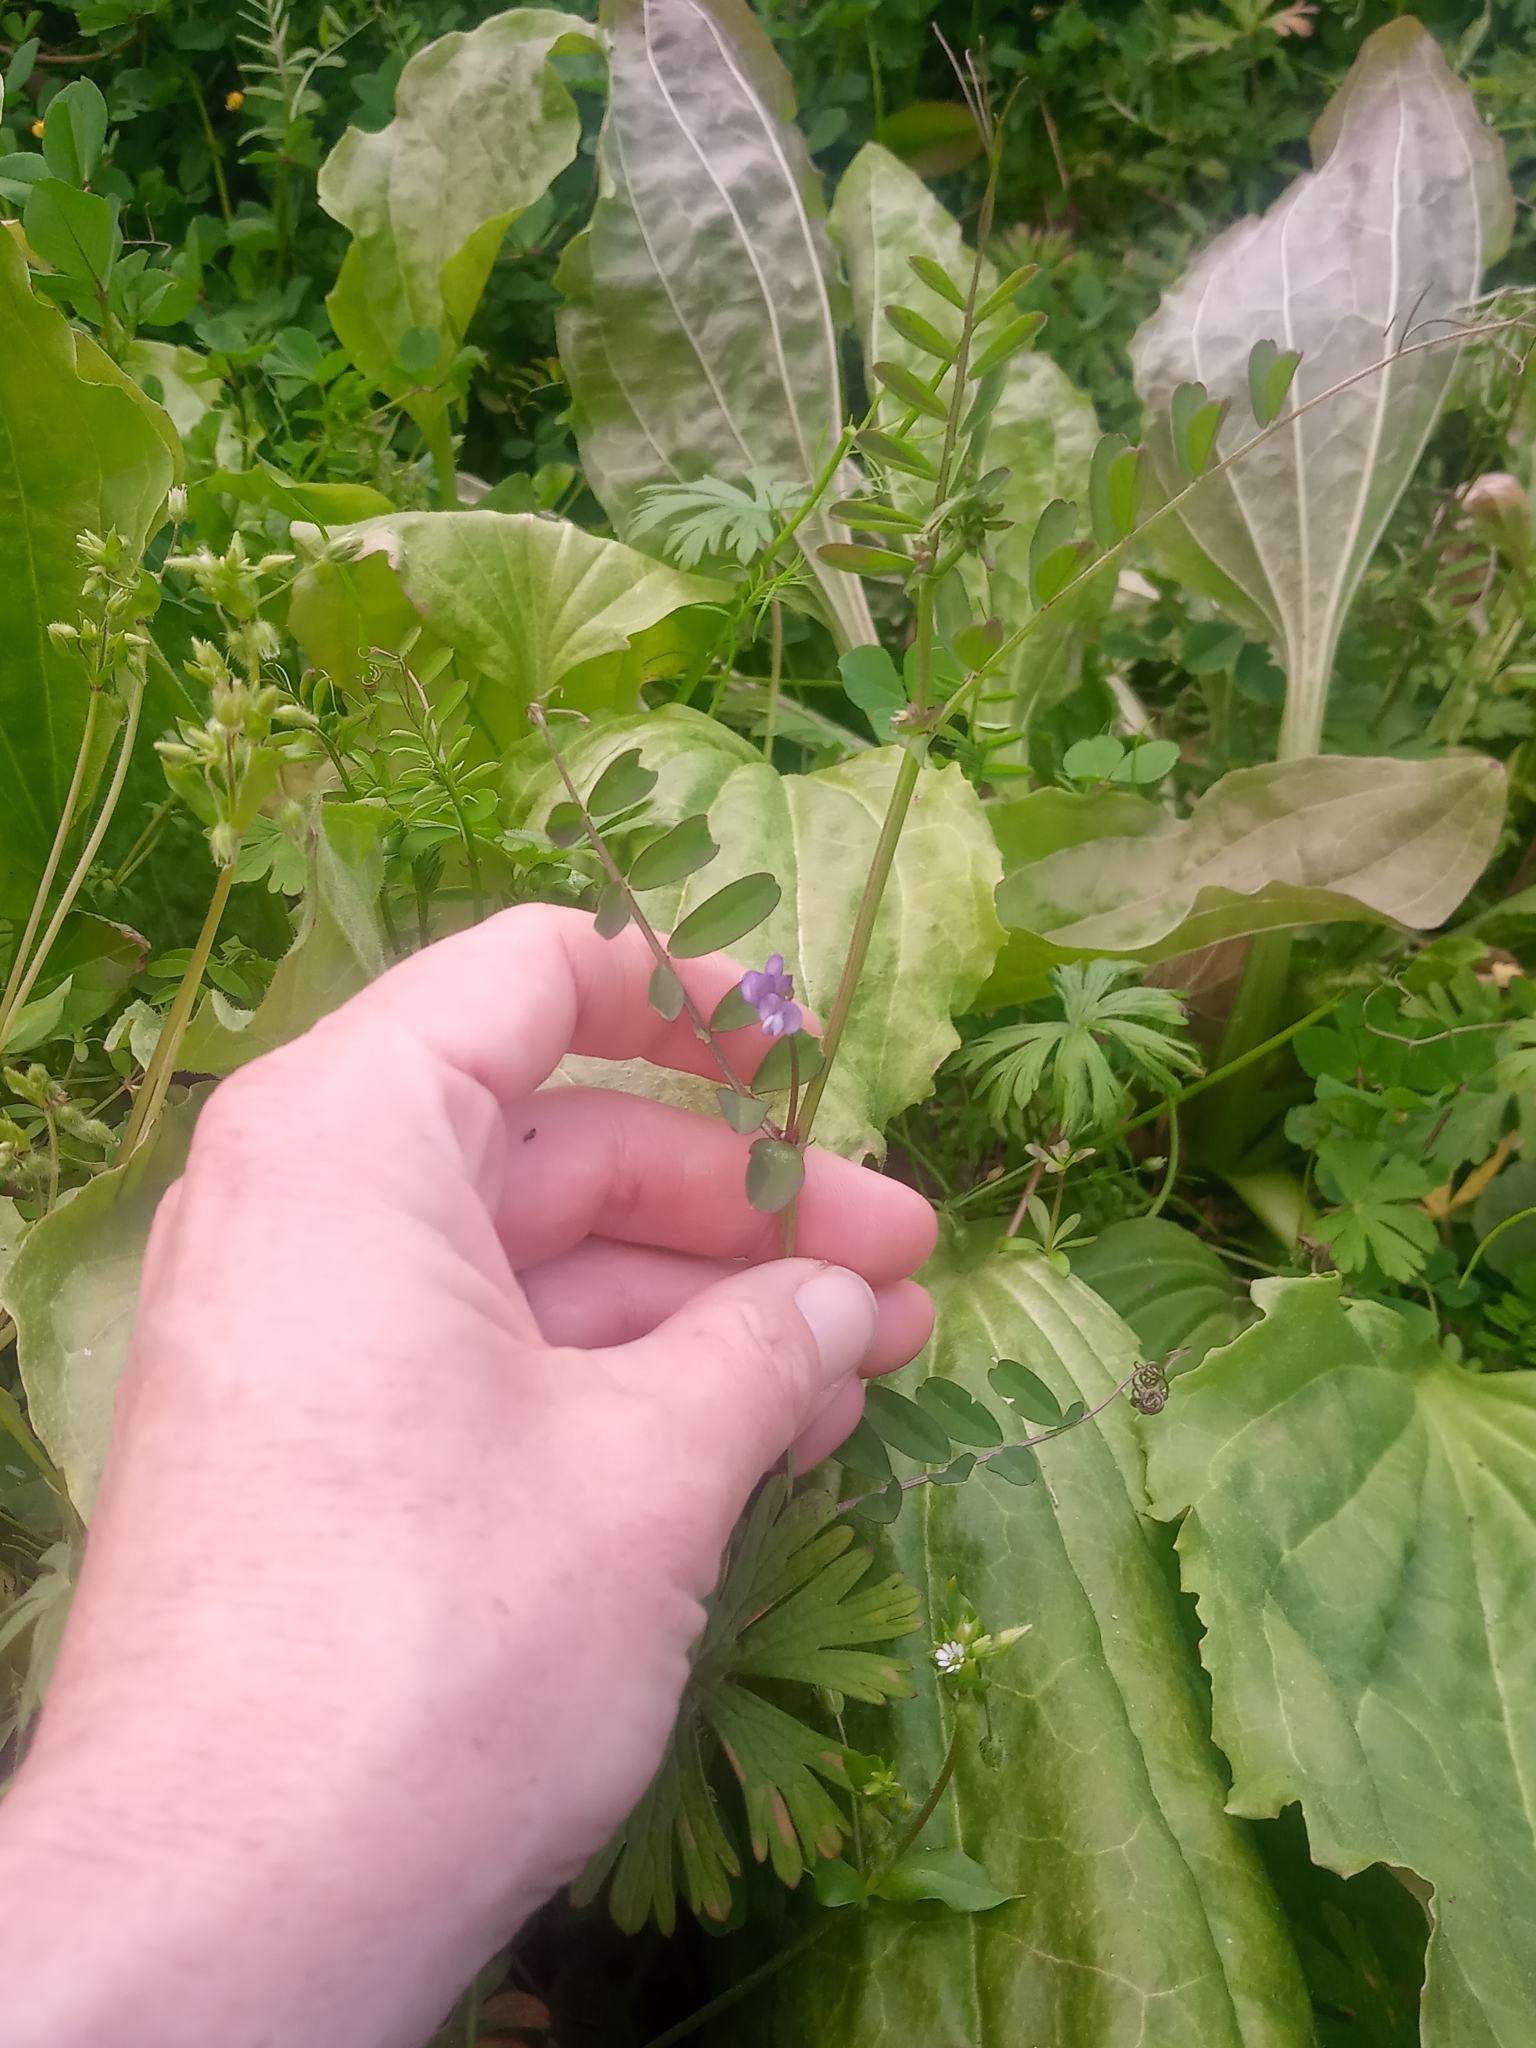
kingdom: Plantae
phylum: Tracheophyta
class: Magnoliopsida
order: Fabales
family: Fabaceae
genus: Vicia
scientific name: Vicia ludoviciana
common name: Louisiana vetch
